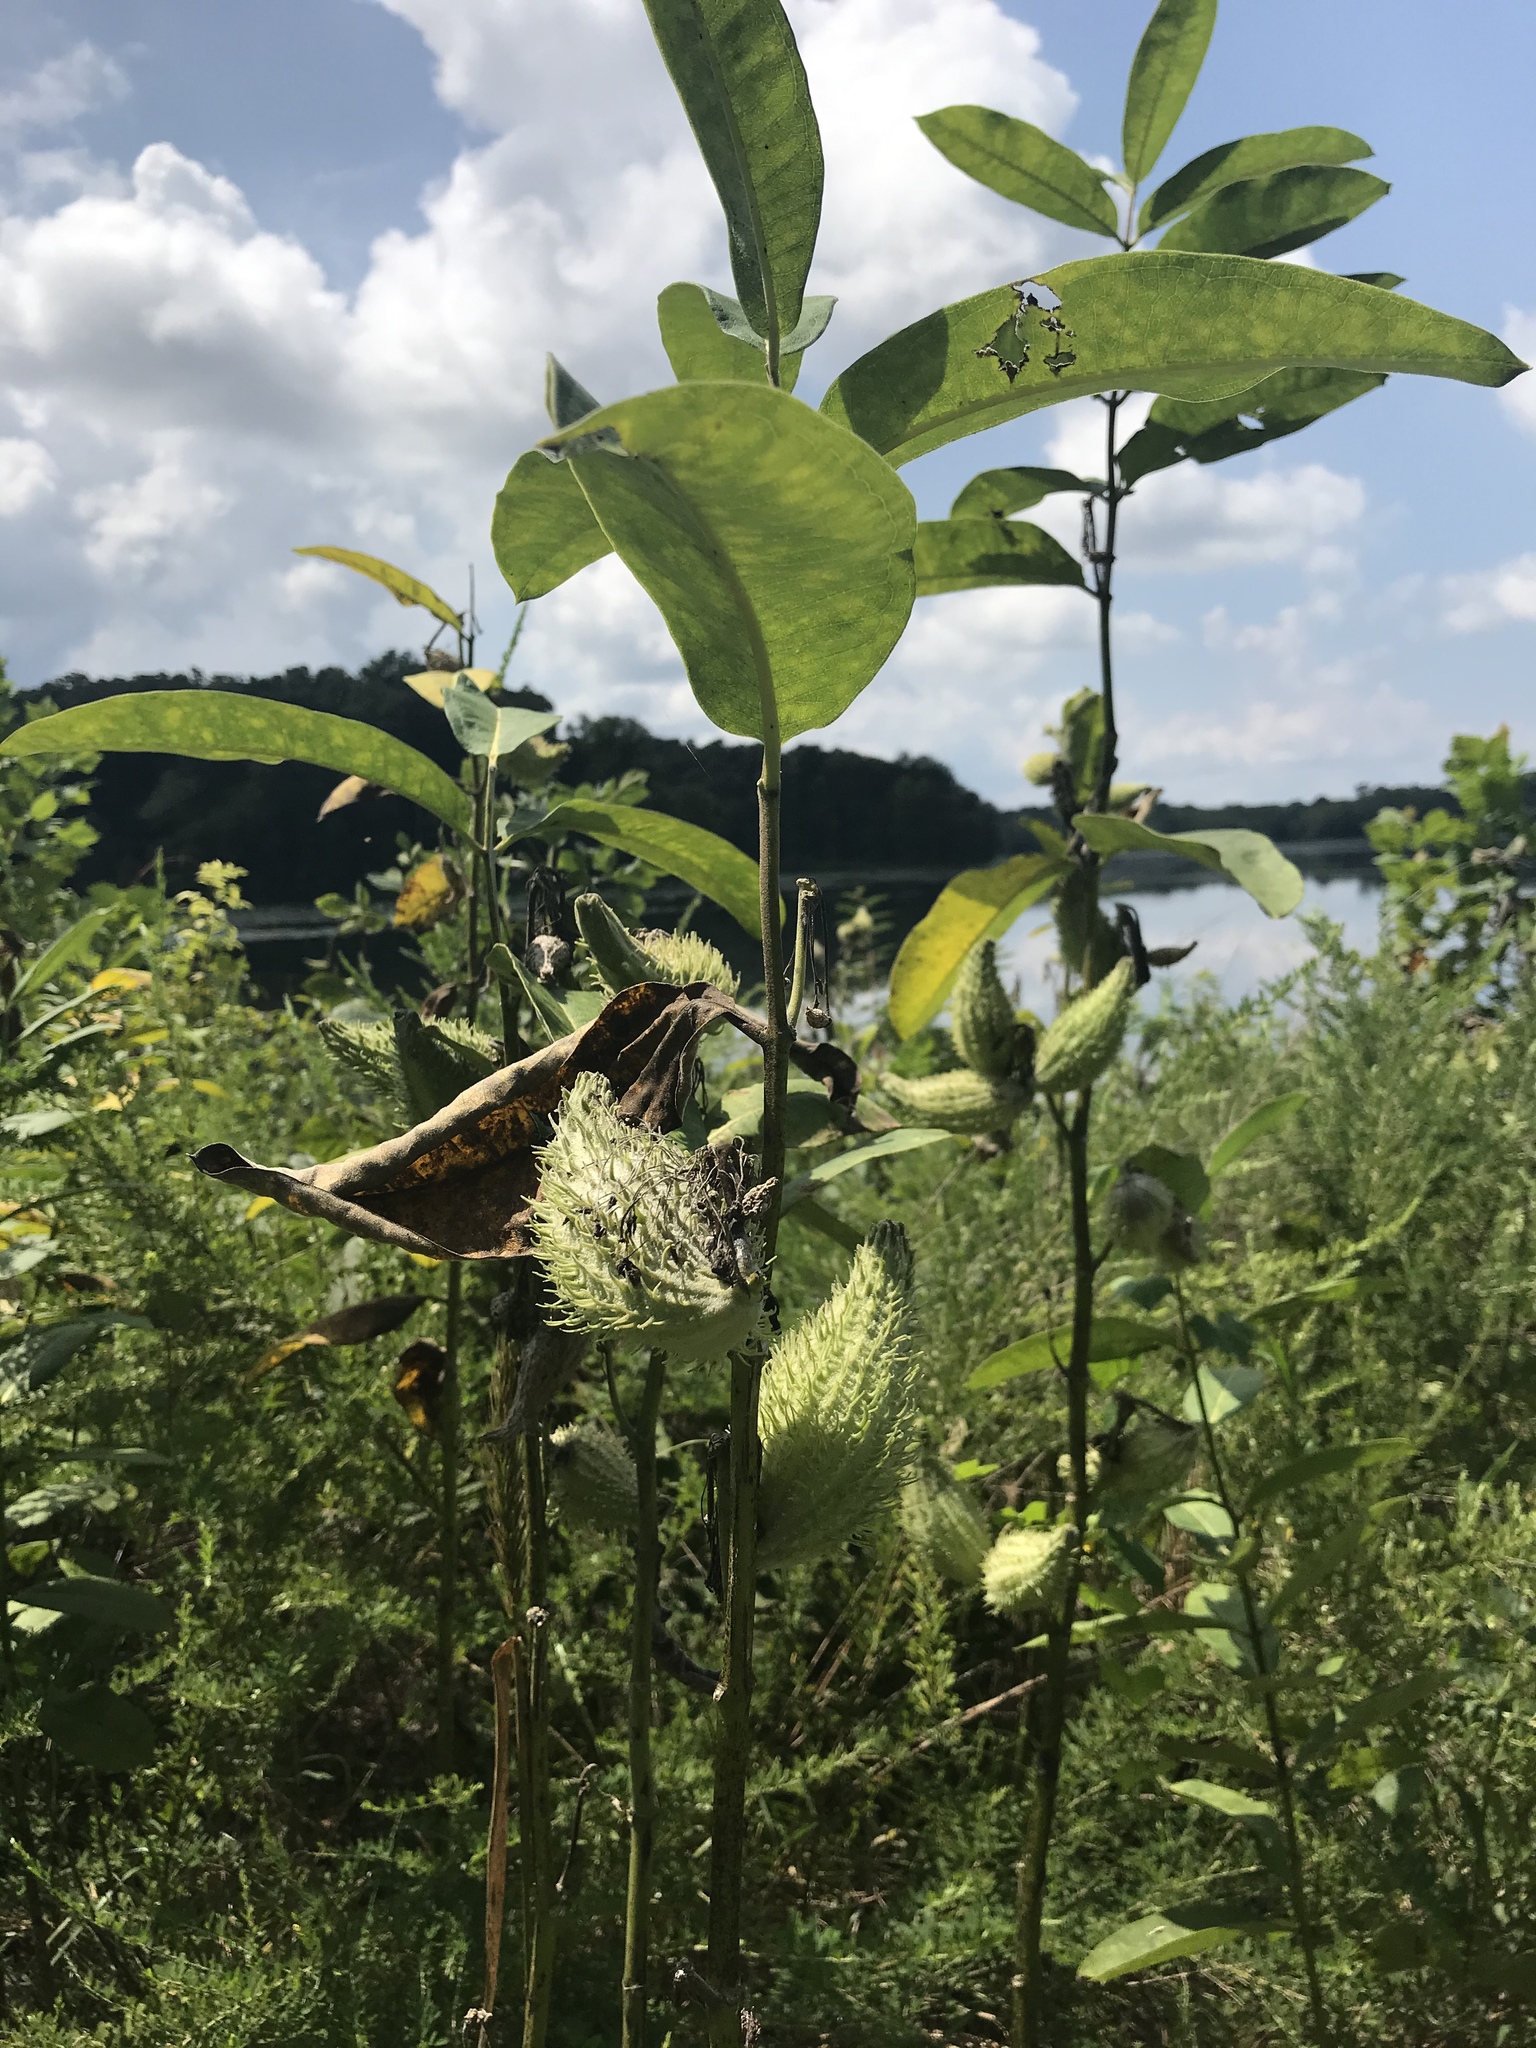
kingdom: Plantae
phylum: Tracheophyta
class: Magnoliopsida
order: Gentianales
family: Apocynaceae
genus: Asclepias
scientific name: Asclepias syriaca
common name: Common milkweed
